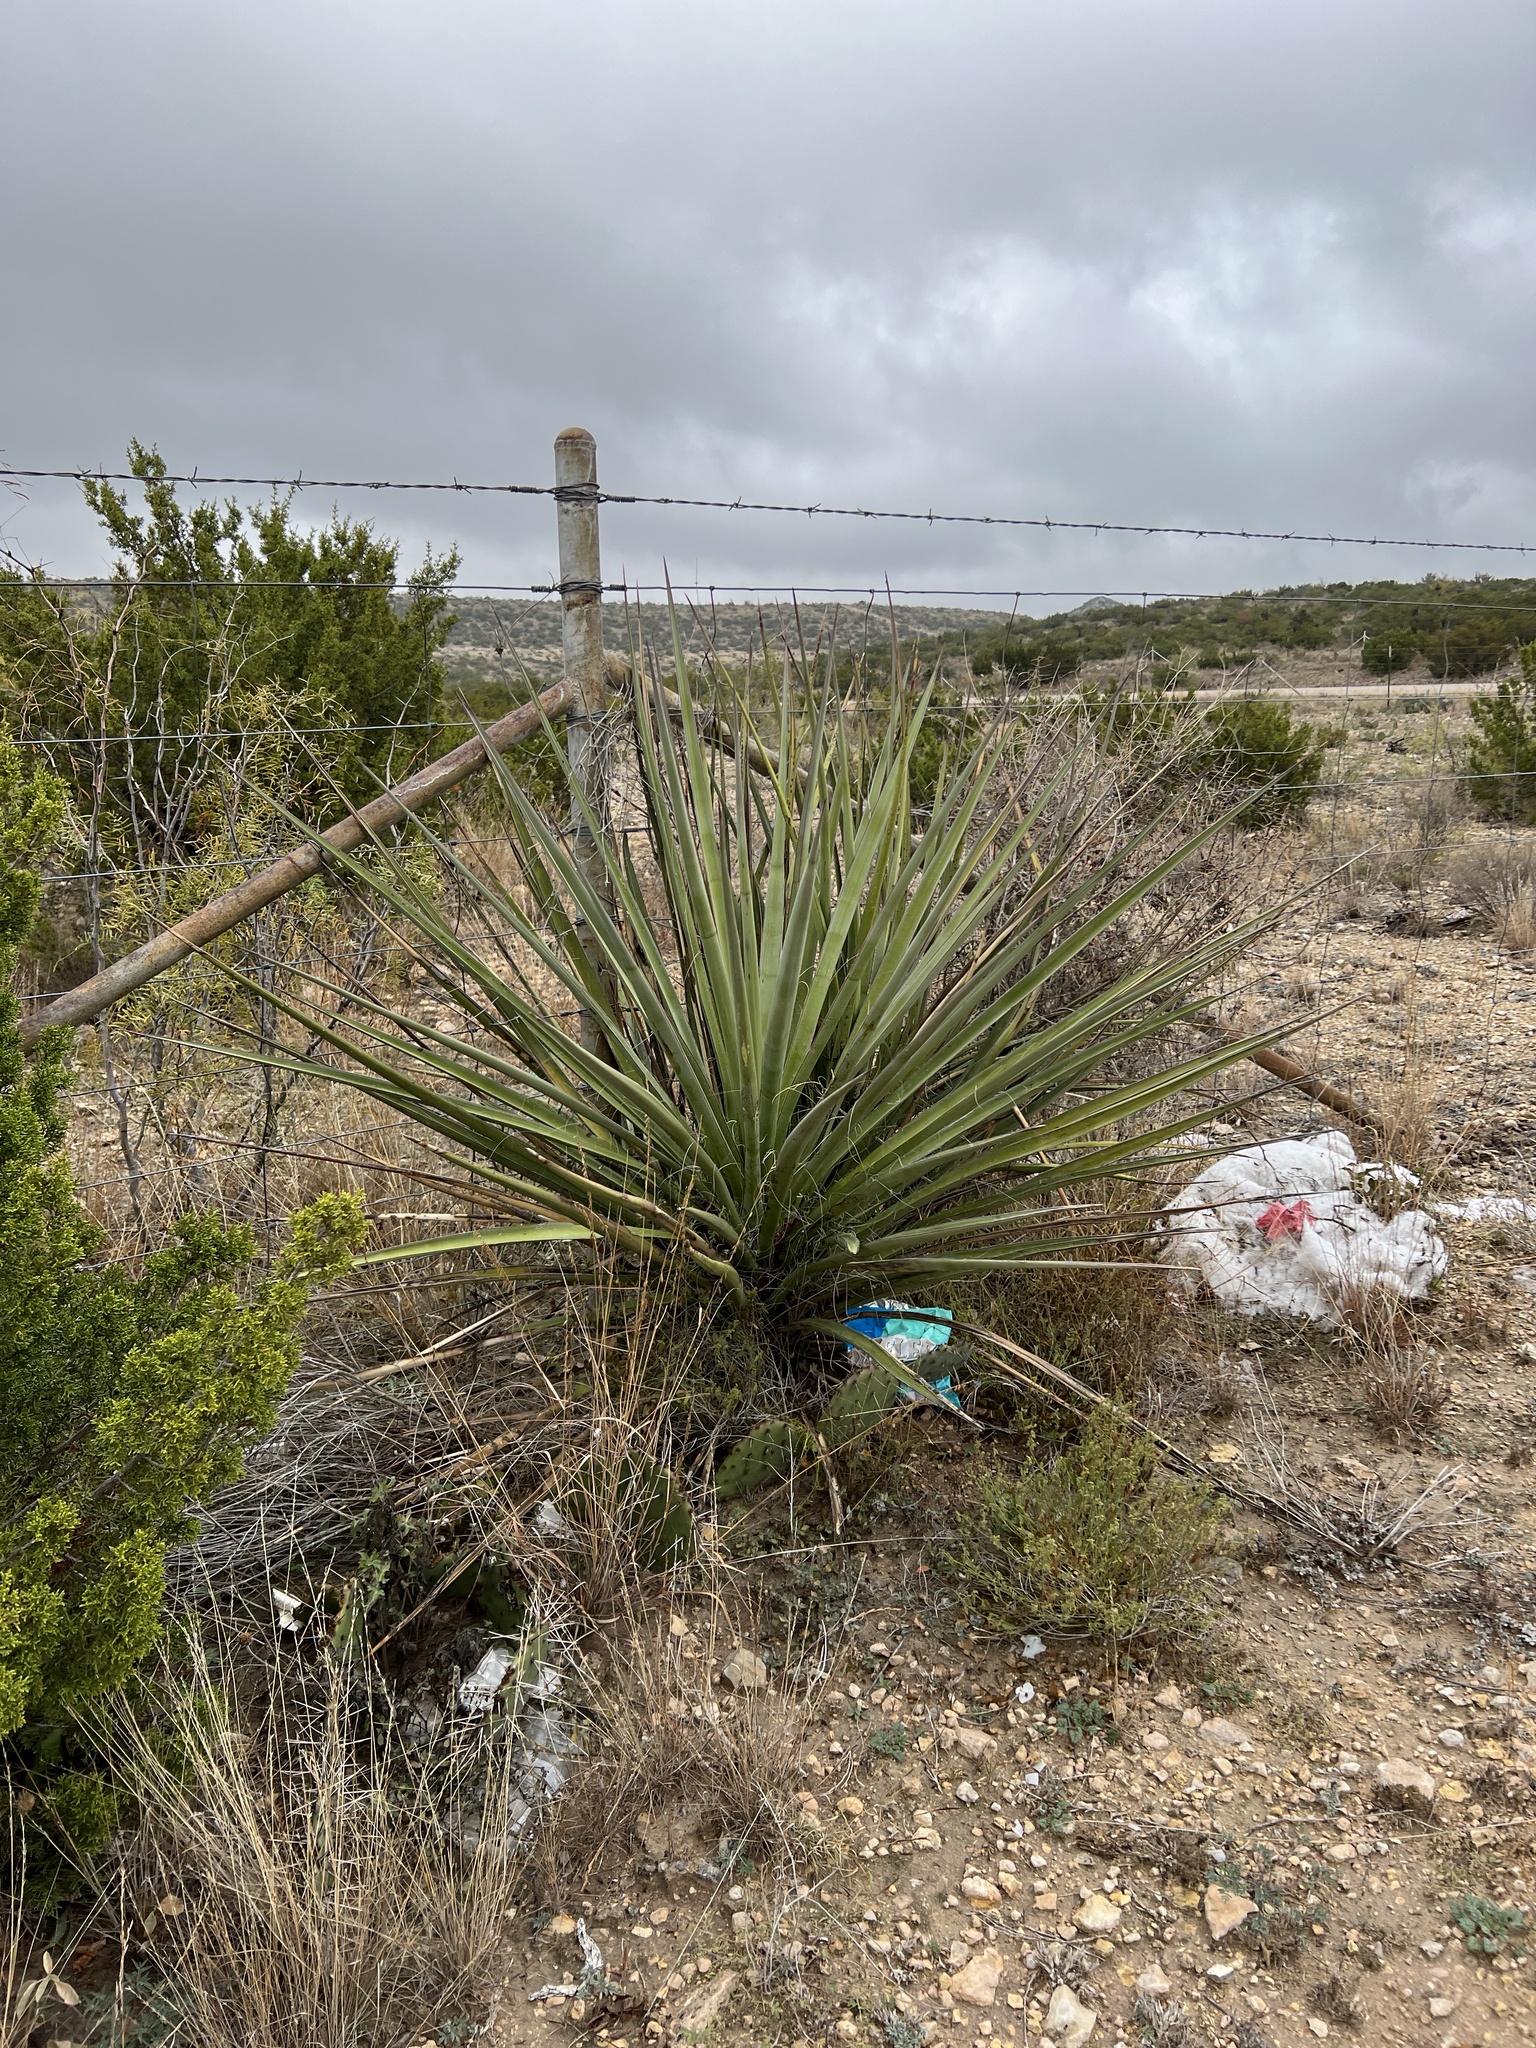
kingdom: Plantae
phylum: Tracheophyta
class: Liliopsida
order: Asparagales
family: Asparagaceae
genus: Yucca
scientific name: Yucca treculiana
